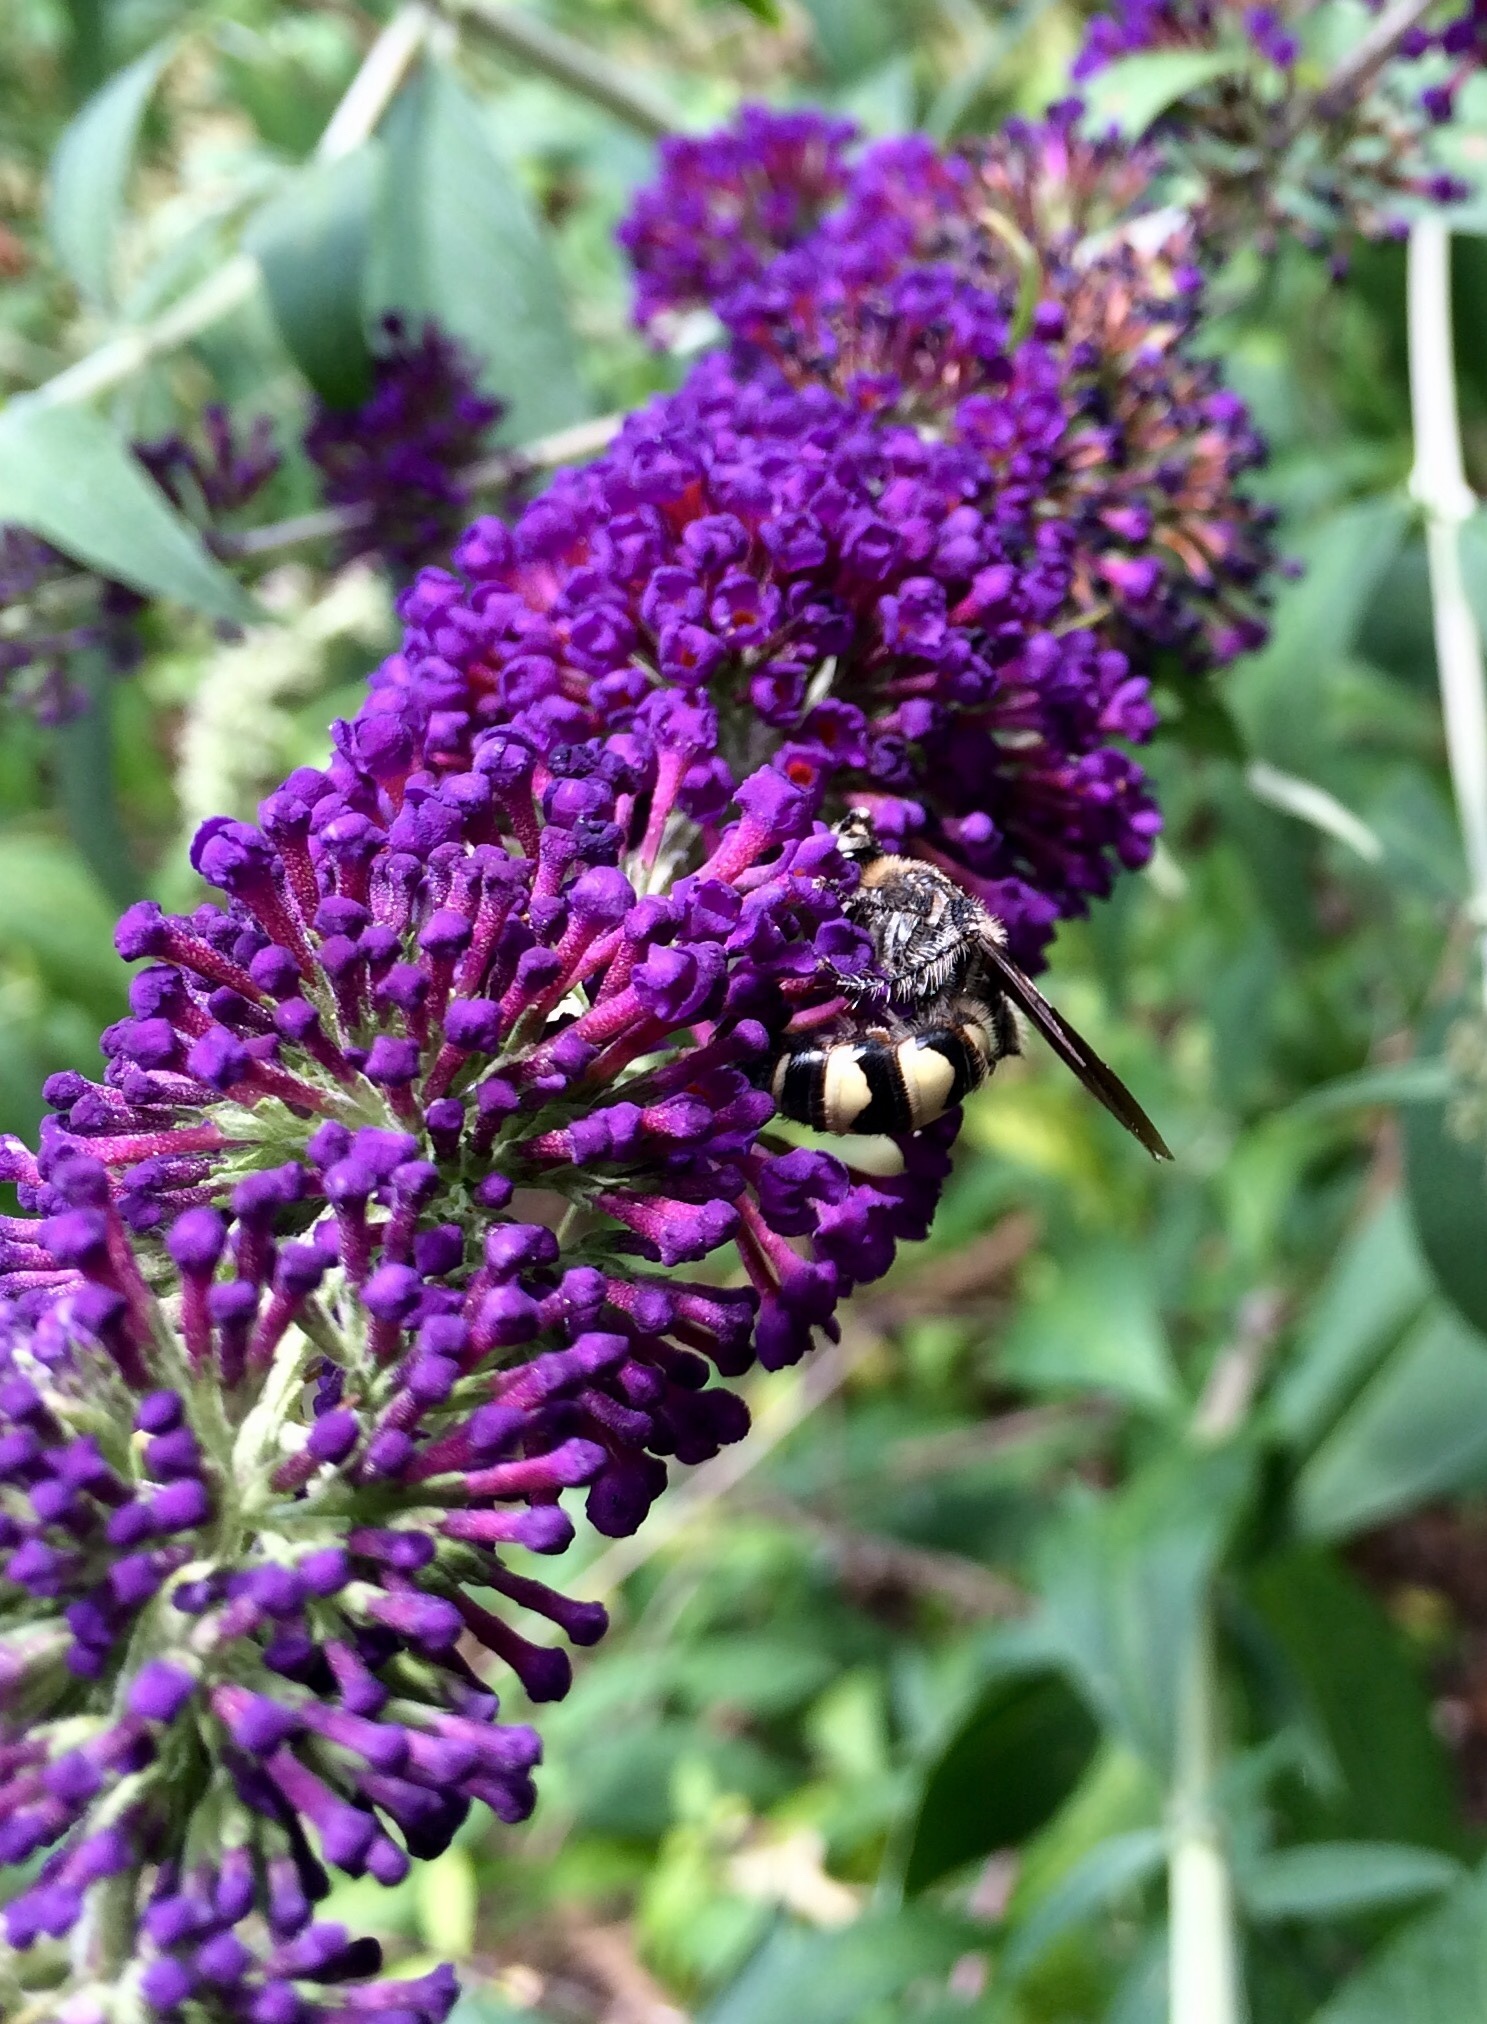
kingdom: Animalia
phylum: Arthropoda
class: Insecta
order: Hymenoptera
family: Scoliidae
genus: Dielis
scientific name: Dielis
